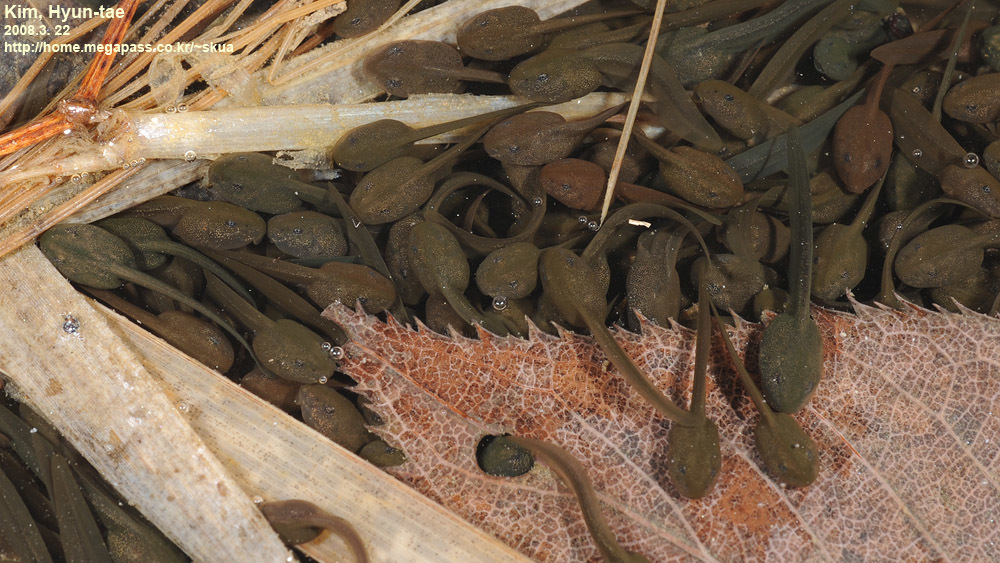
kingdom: Animalia
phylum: Chordata
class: Amphibia
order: Anura
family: Ranidae
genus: Rana
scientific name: Rana huanrenensis
